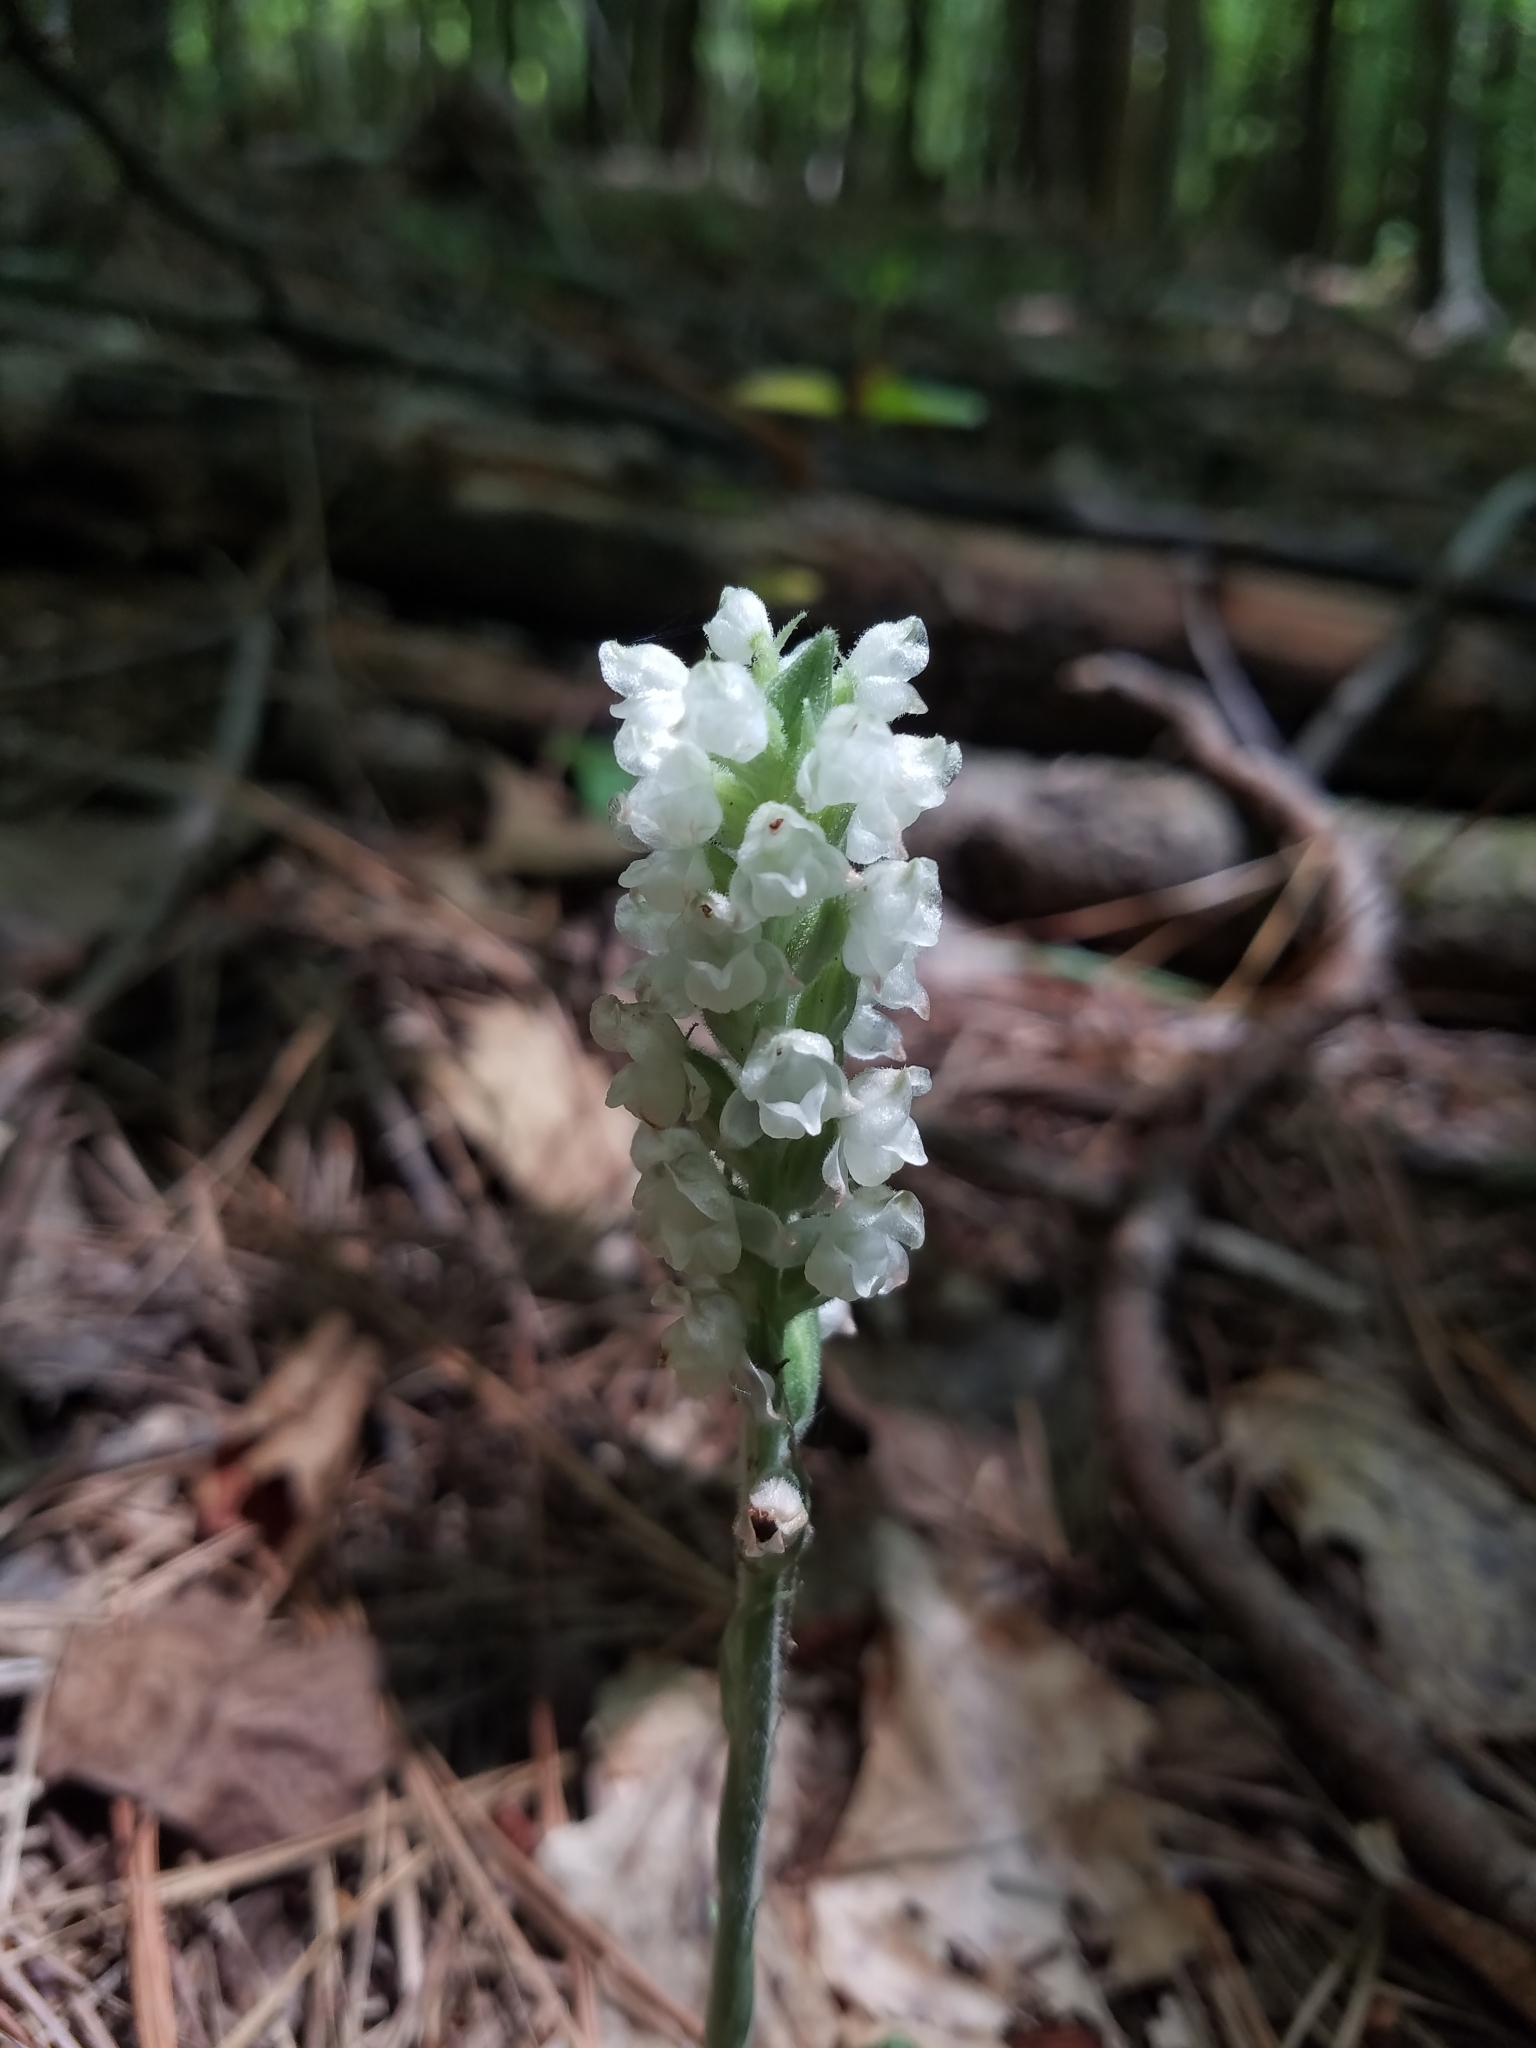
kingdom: Plantae
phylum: Tracheophyta
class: Liliopsida
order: Asparagales
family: Orchidaceae
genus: Goodyera
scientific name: Goodyera pubescens
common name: Downy rattlesnake-plantain
